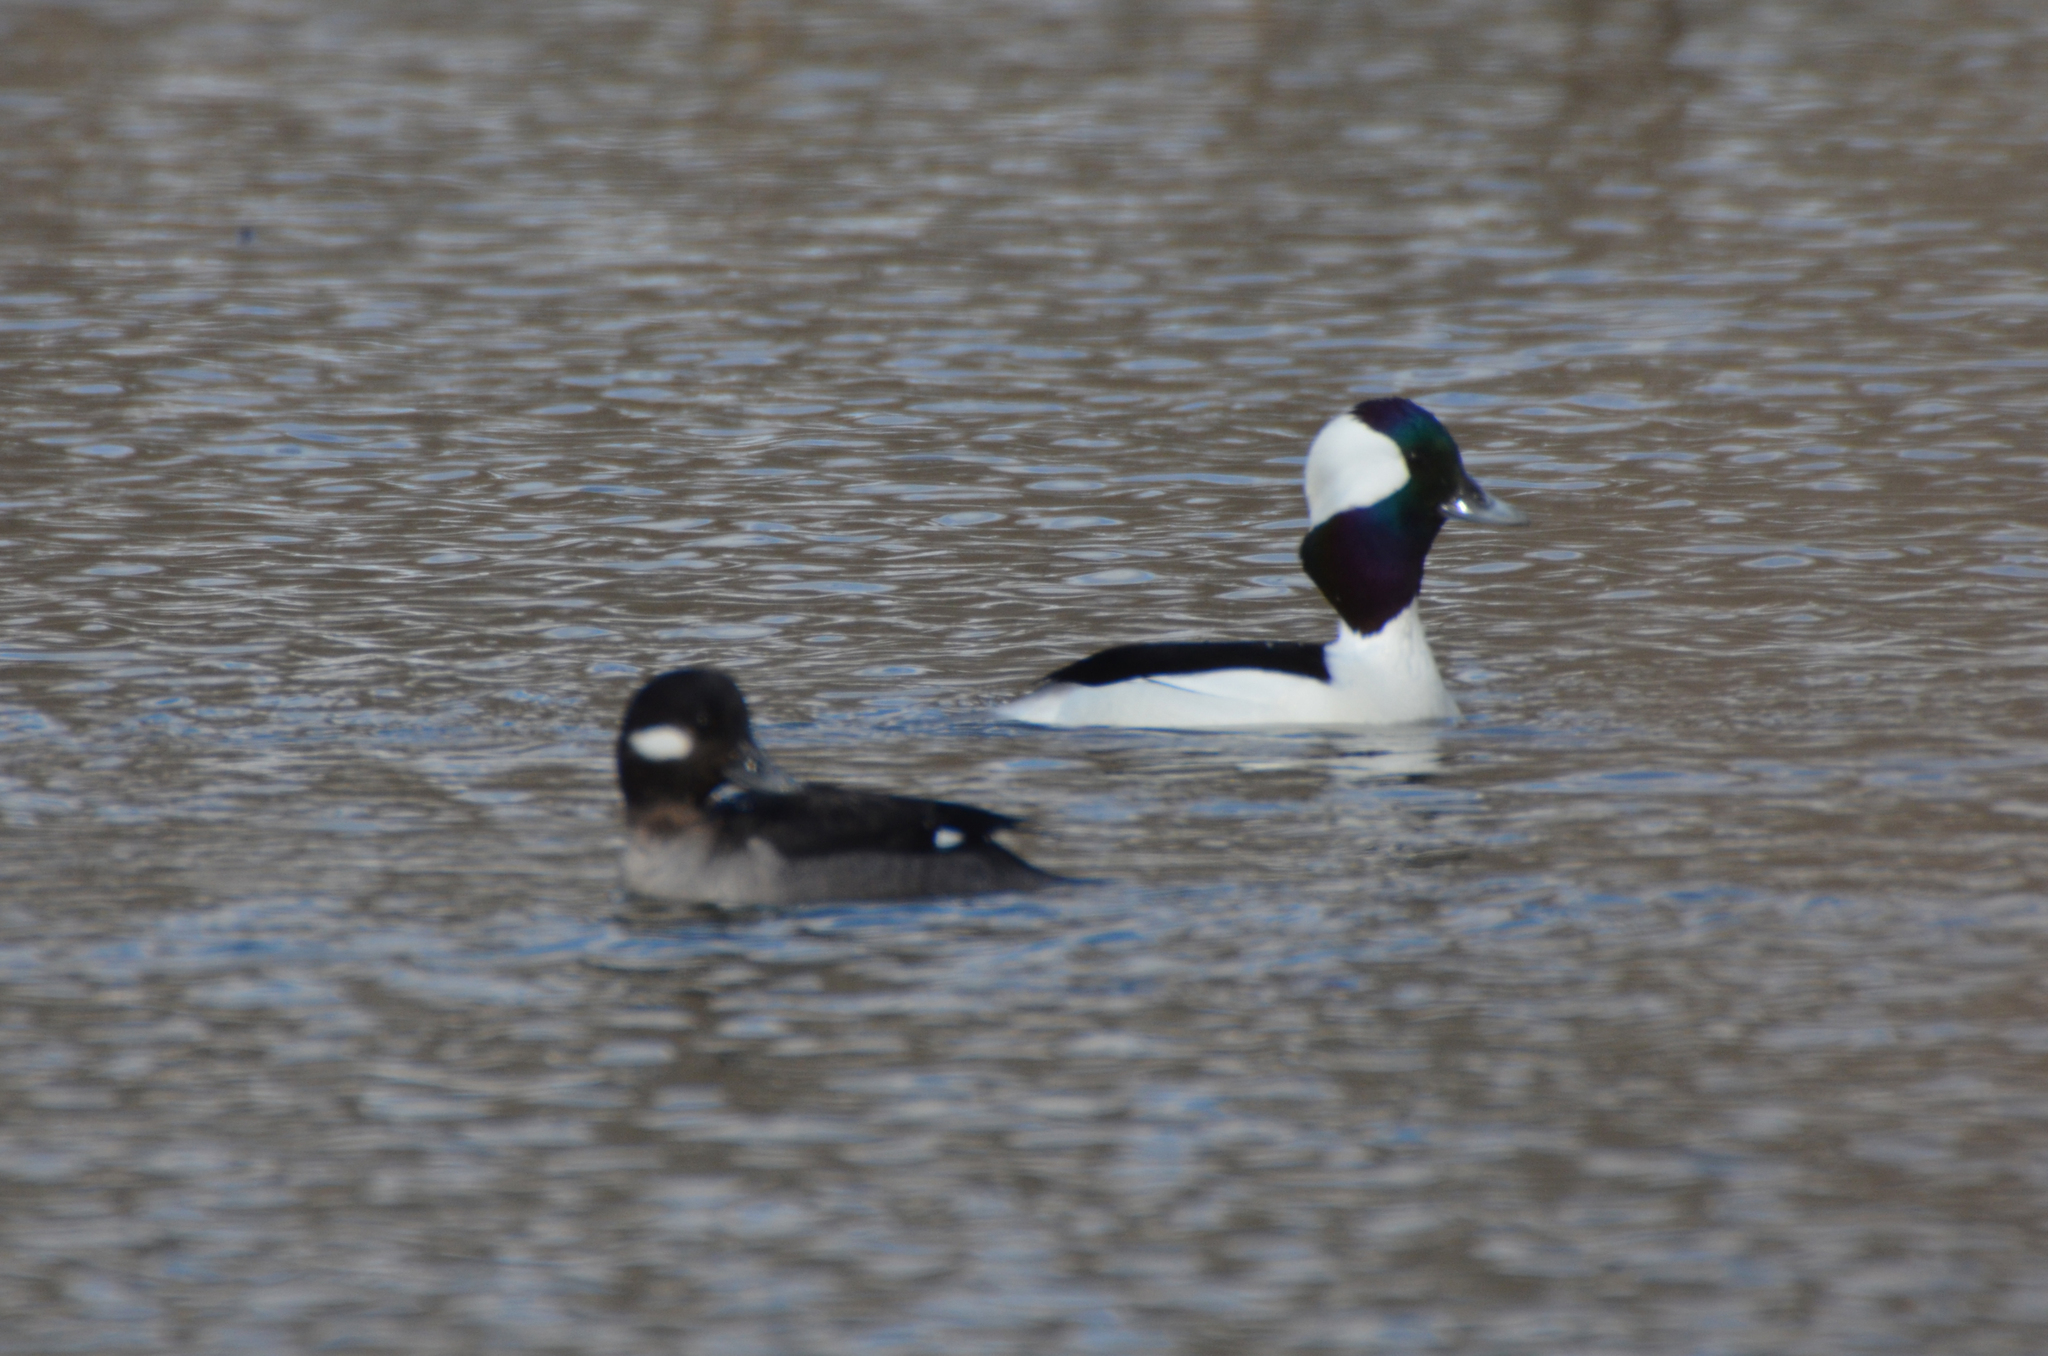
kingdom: Animalia
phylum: Chordata
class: Aves
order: Anseriformes
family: Anatidae
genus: Bucephala
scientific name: Bucephala albeola
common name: Bufflehead
